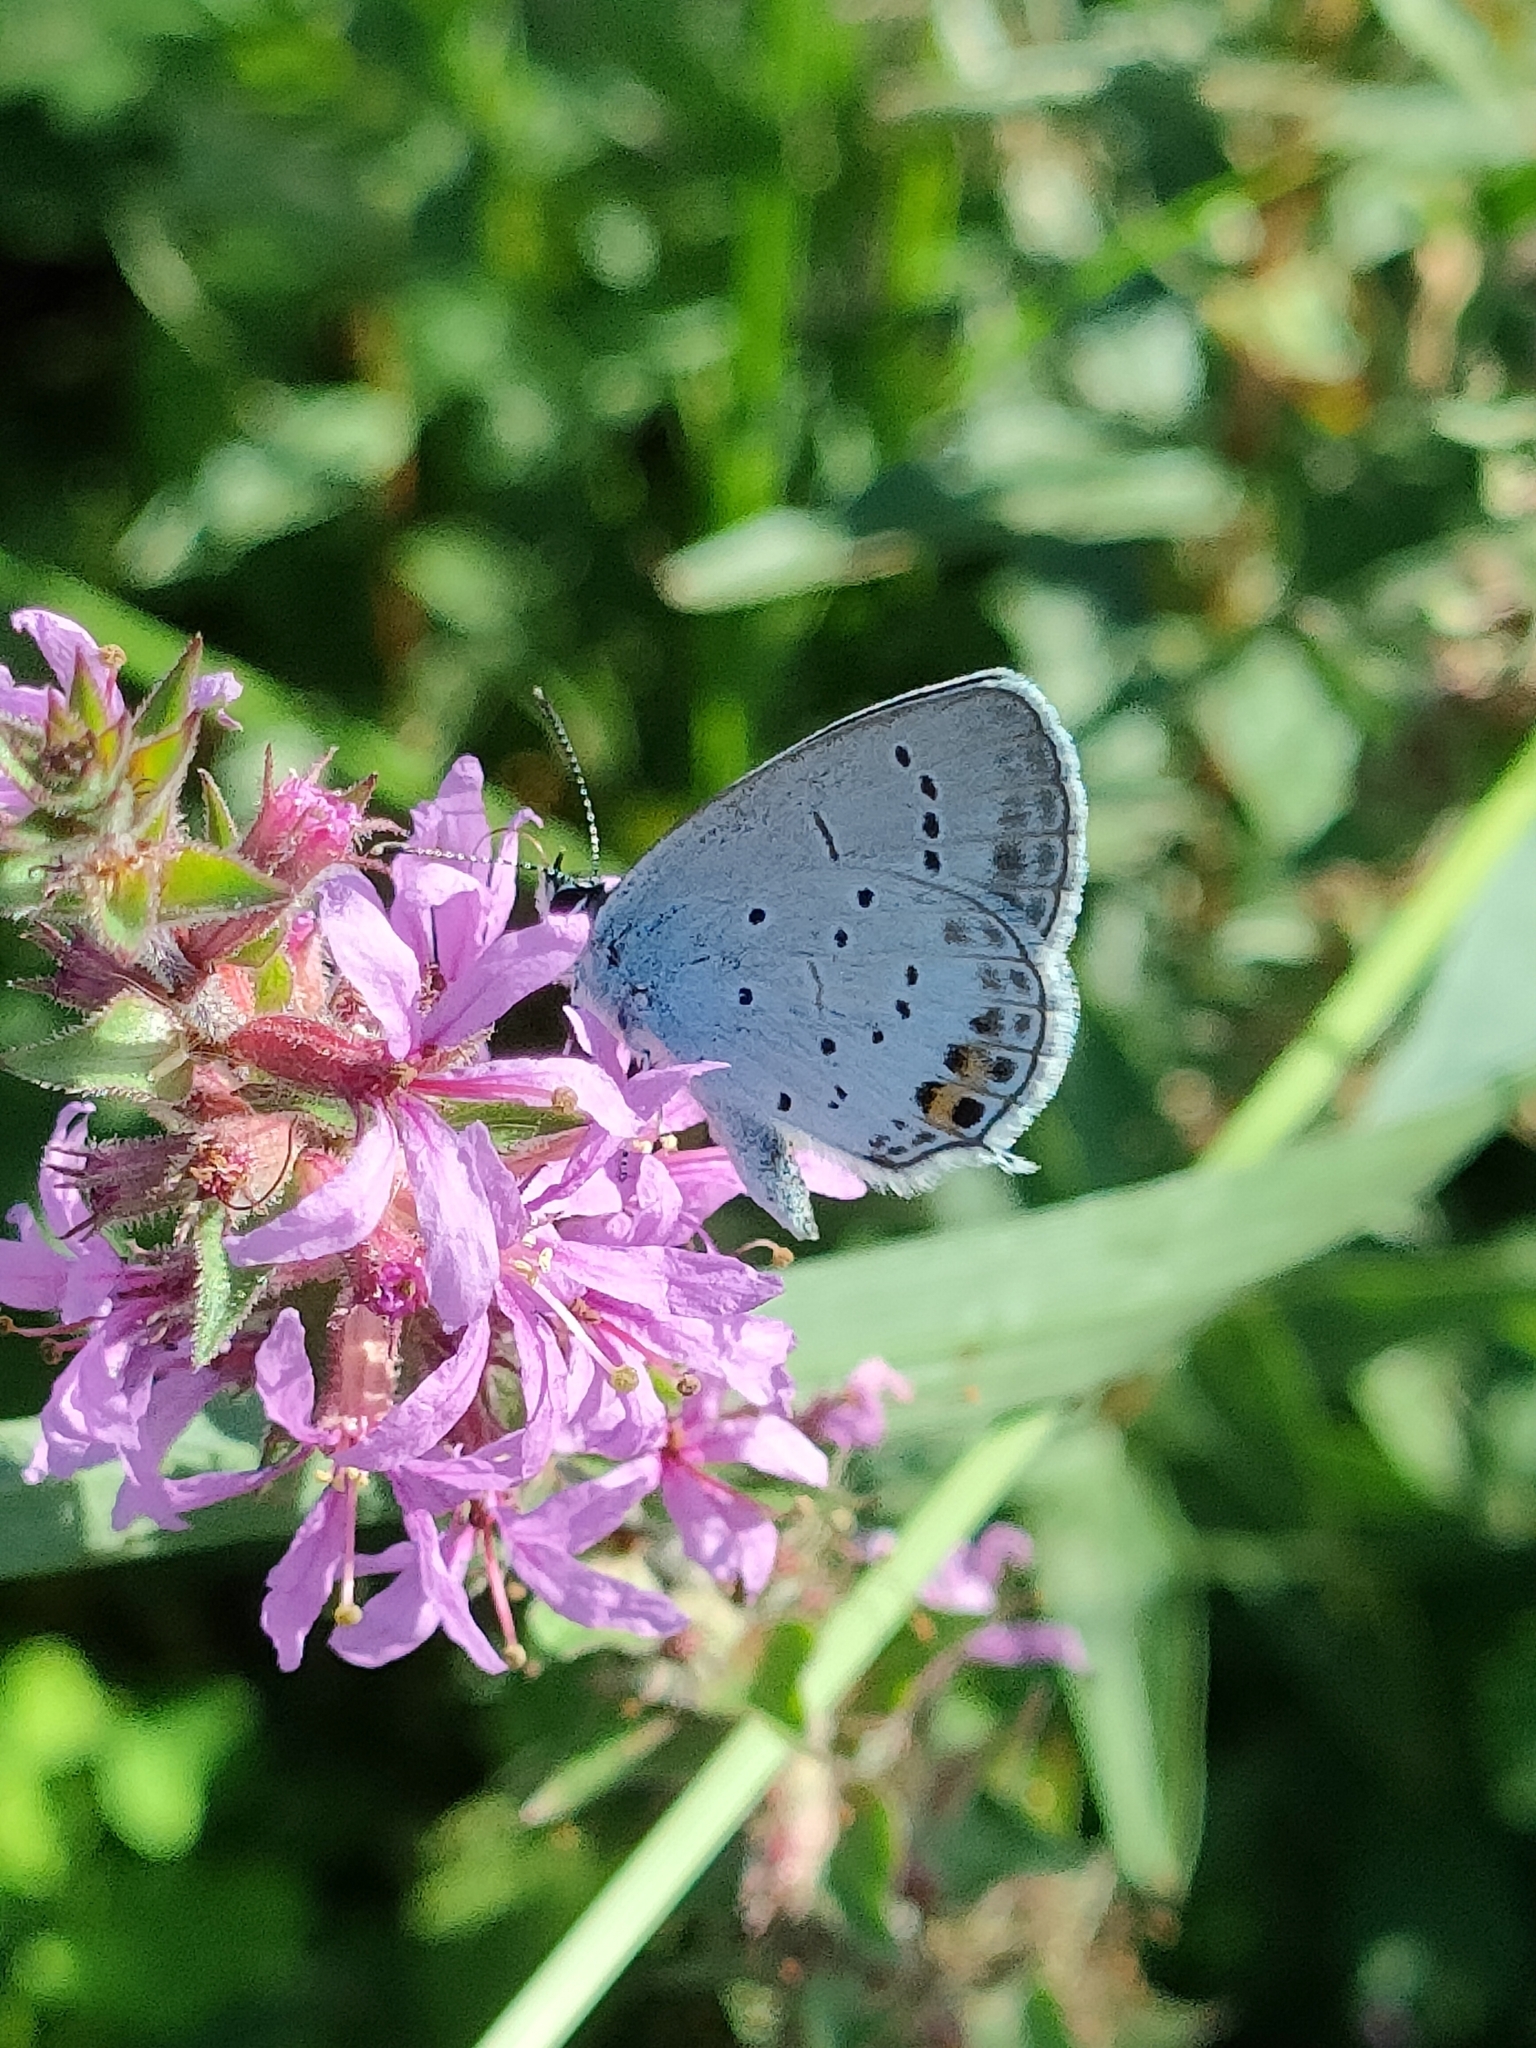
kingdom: Animalia
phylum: Arthropoda
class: Insecta
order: Lepidoptera
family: Lycaenidae
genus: Elkalyce
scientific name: Elkalyce argiades
